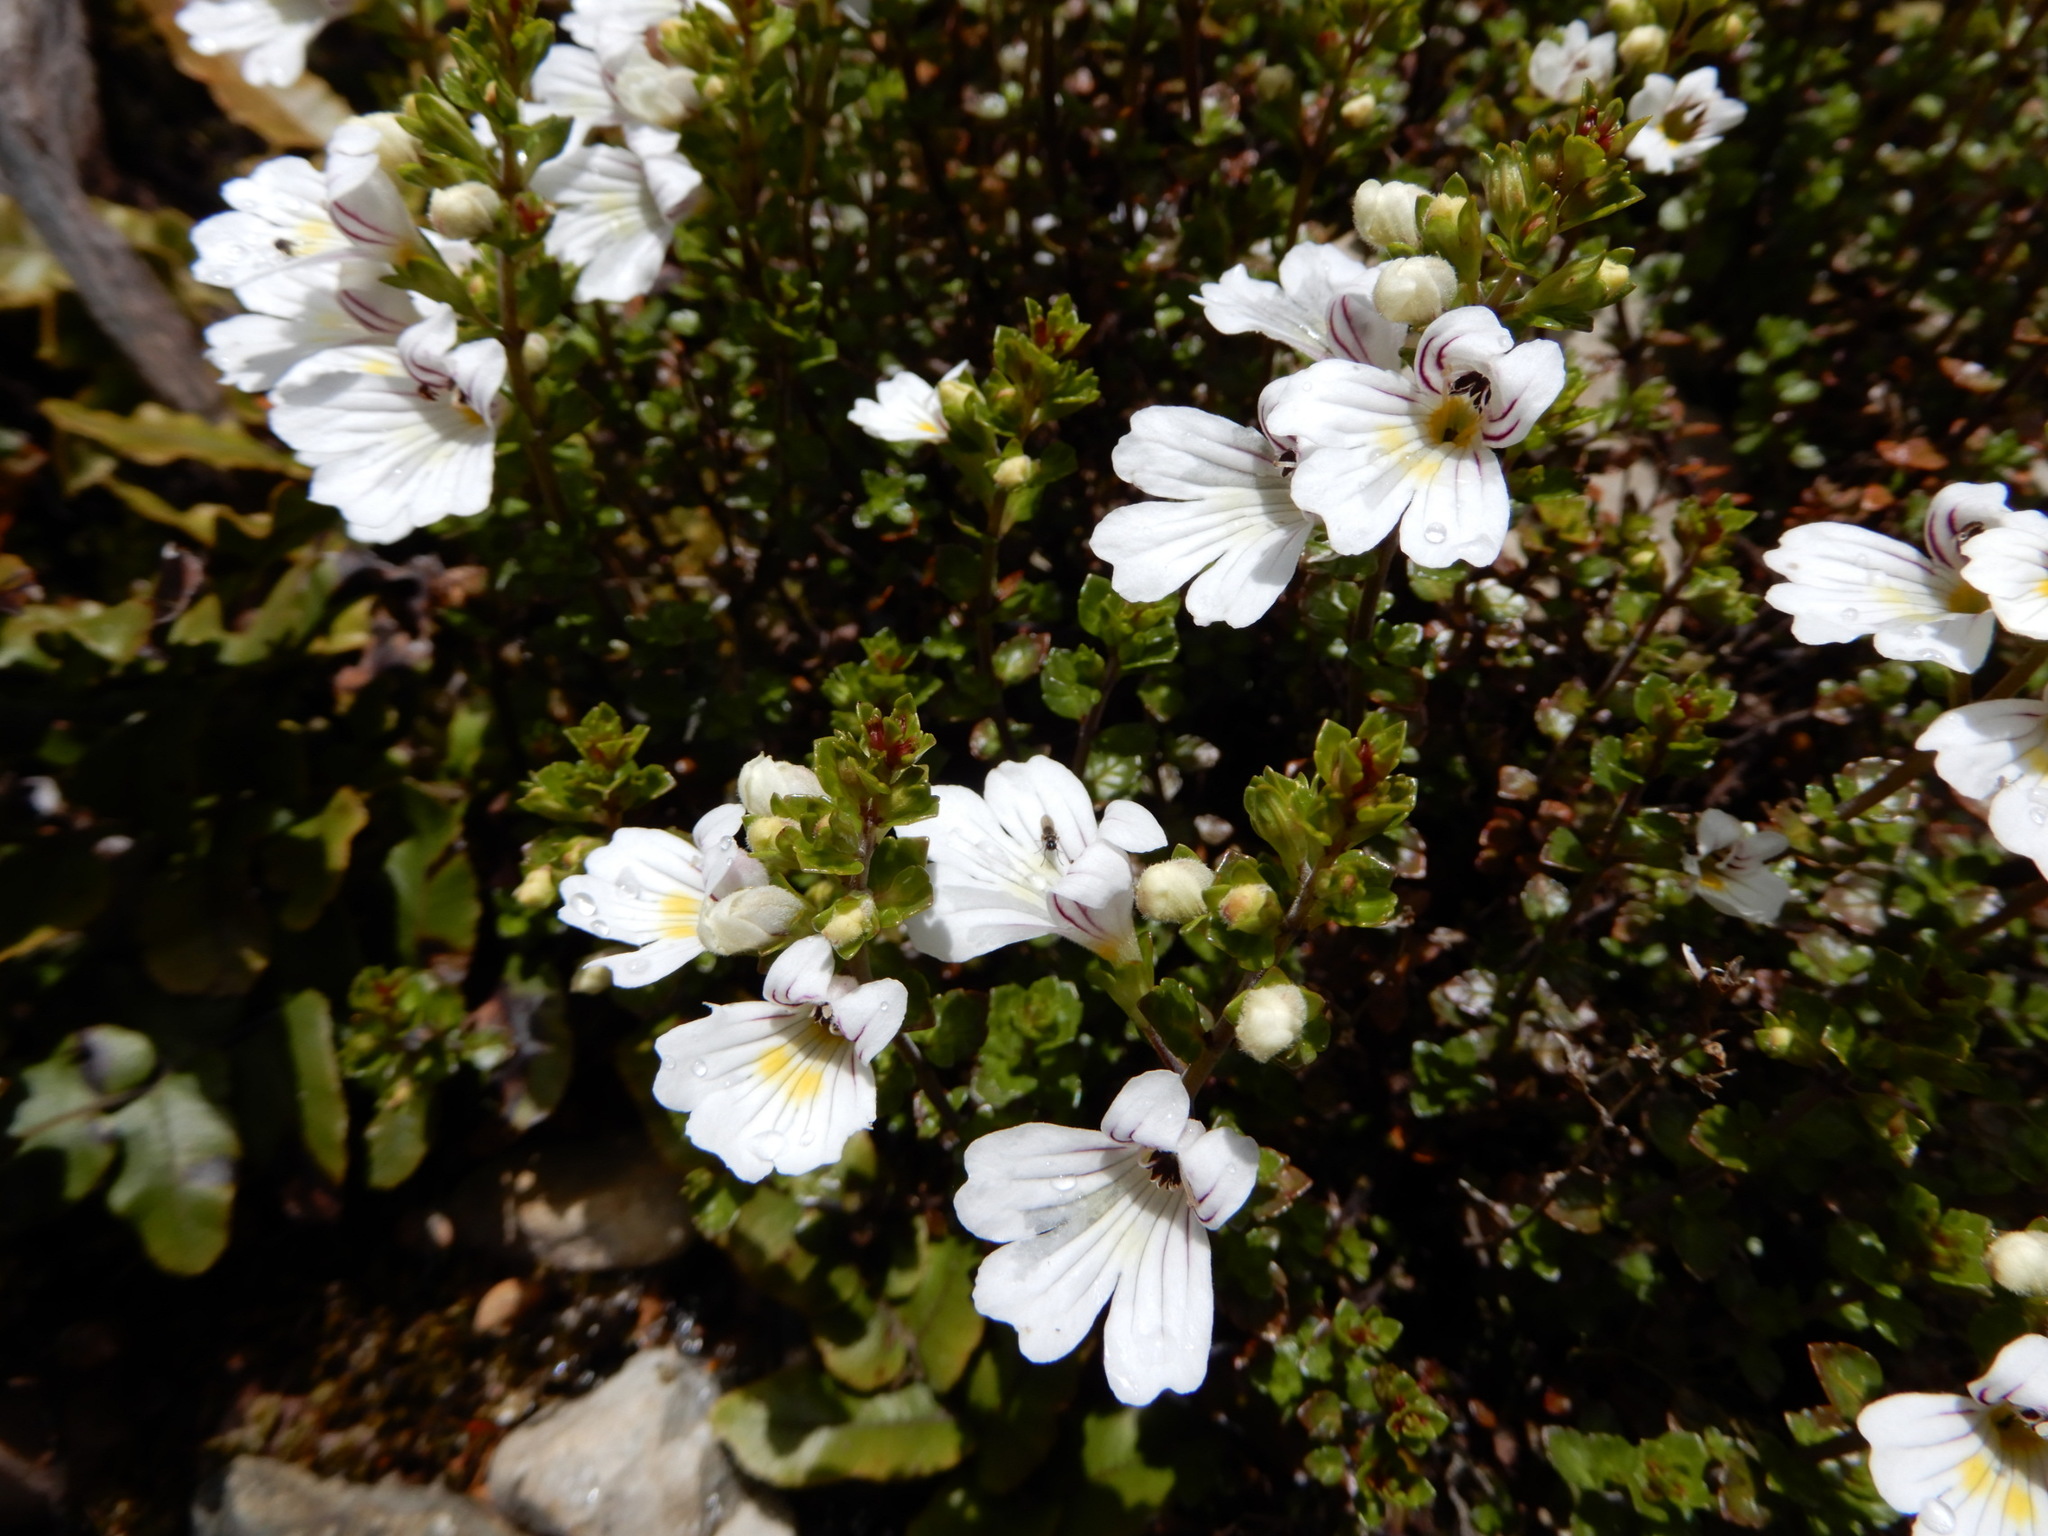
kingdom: Plantae
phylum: Tracheophyta
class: Magnoliopsida
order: Lamiales
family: Orobanchaceae
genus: Euphrasia
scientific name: Euphrasia cuneata
